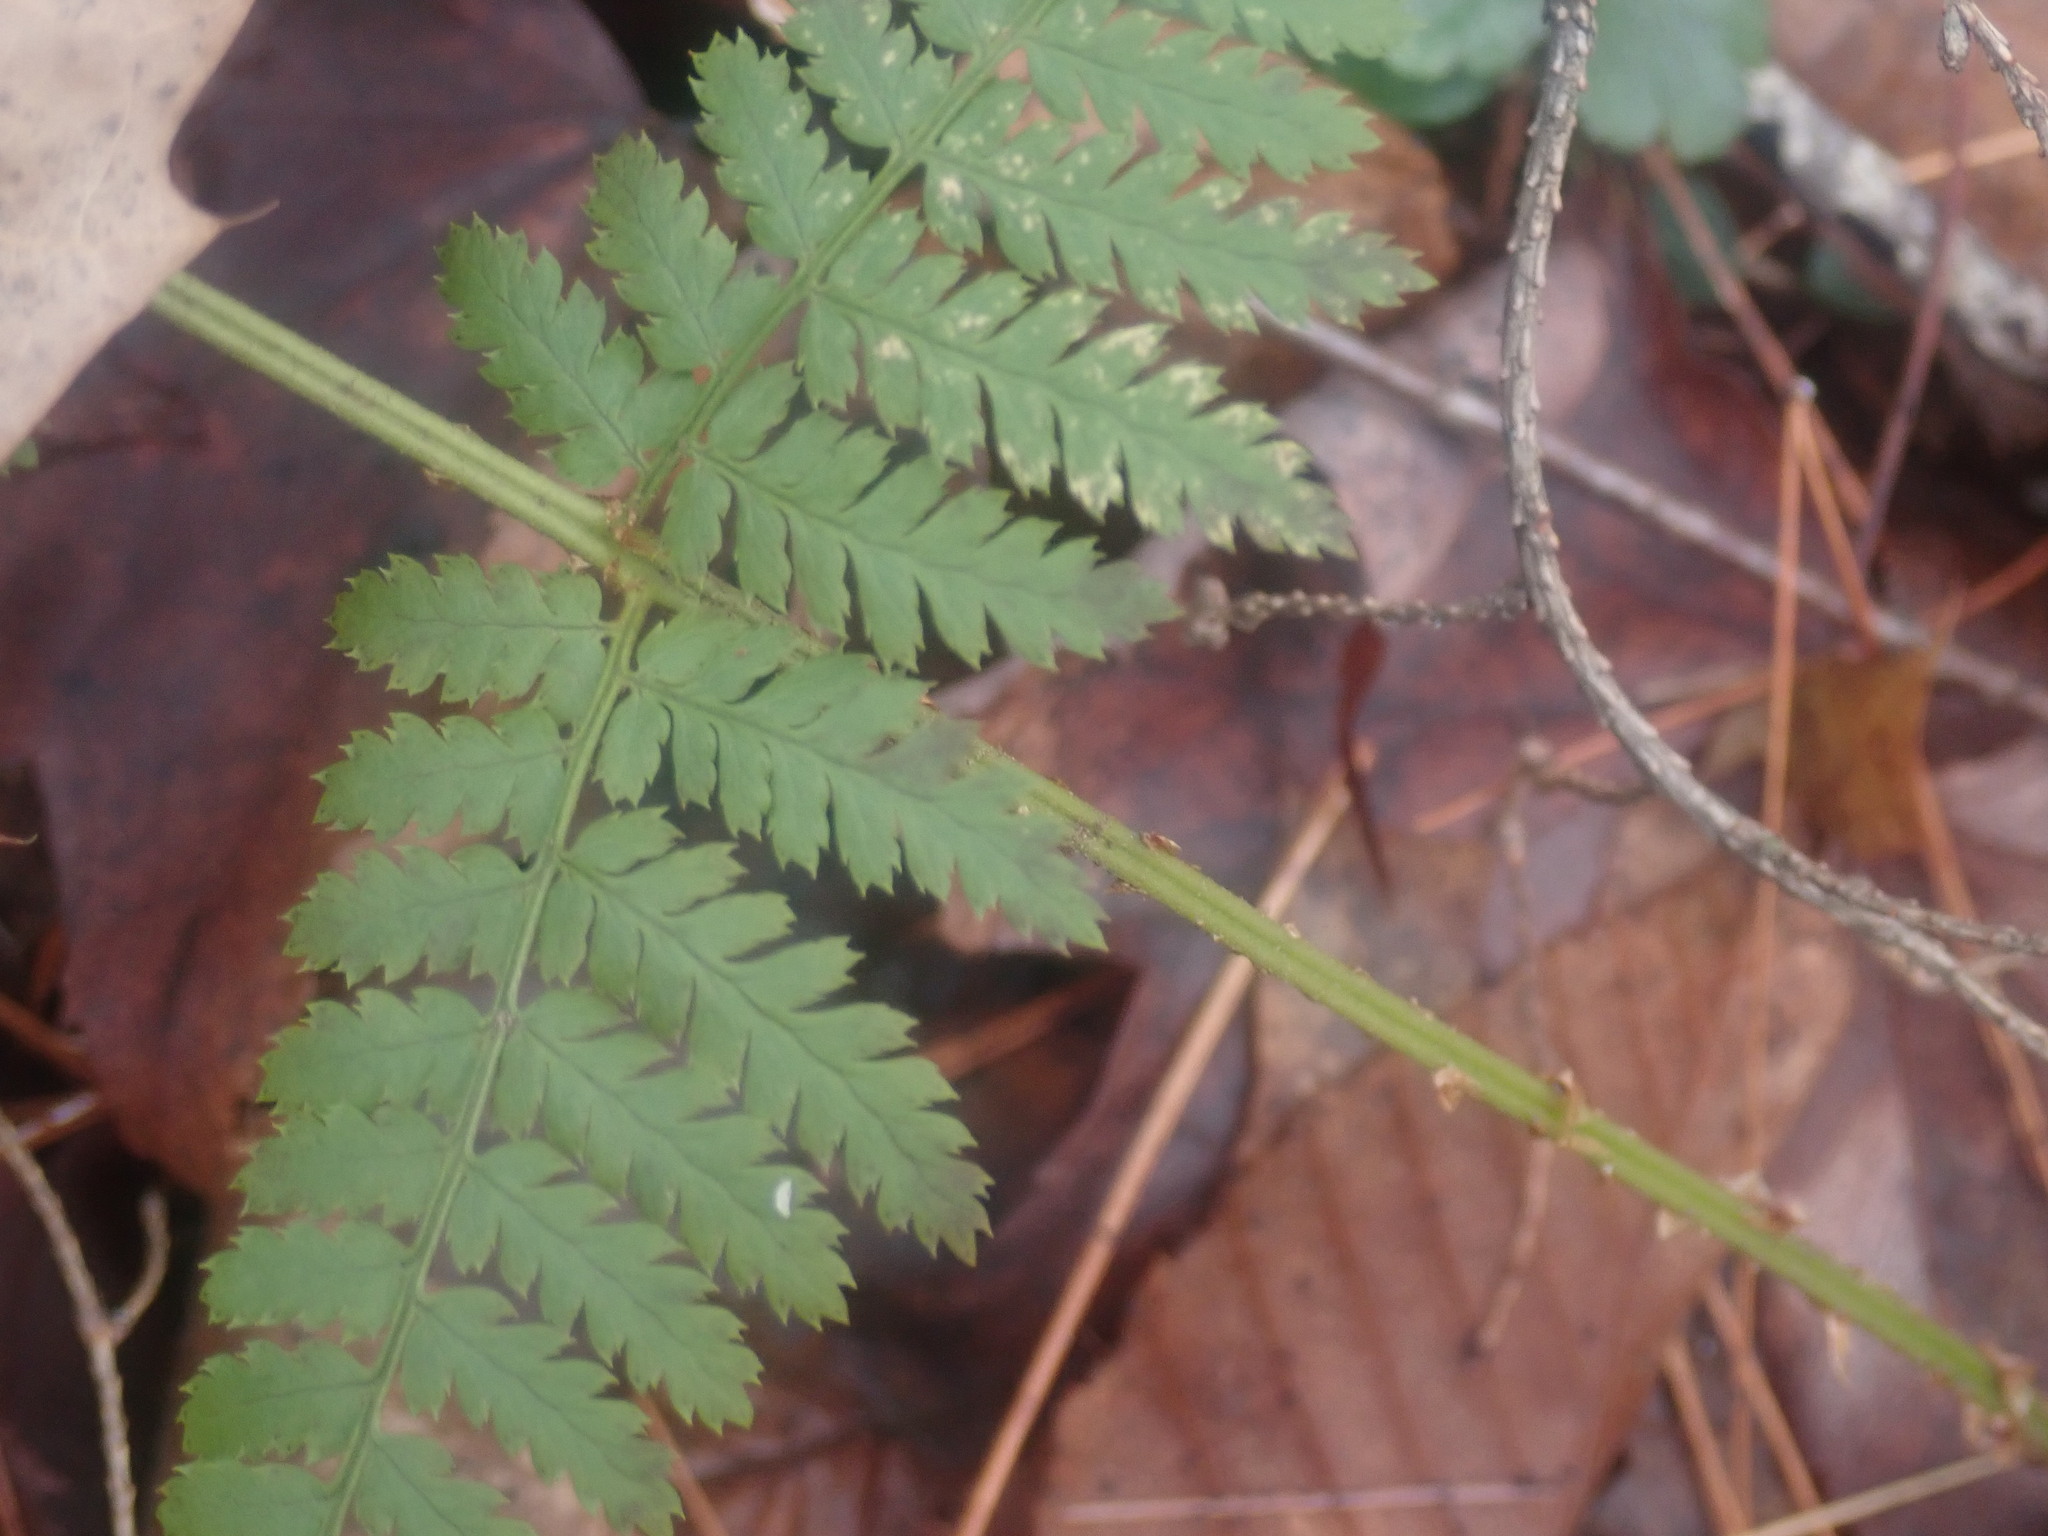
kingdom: Plantae
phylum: Tracheophyta
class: Polypodiopsida
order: Polypodiales
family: Dryopteridaceae
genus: Dryopteris
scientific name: Dryopteris intermedia
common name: Evergreen wood fern
